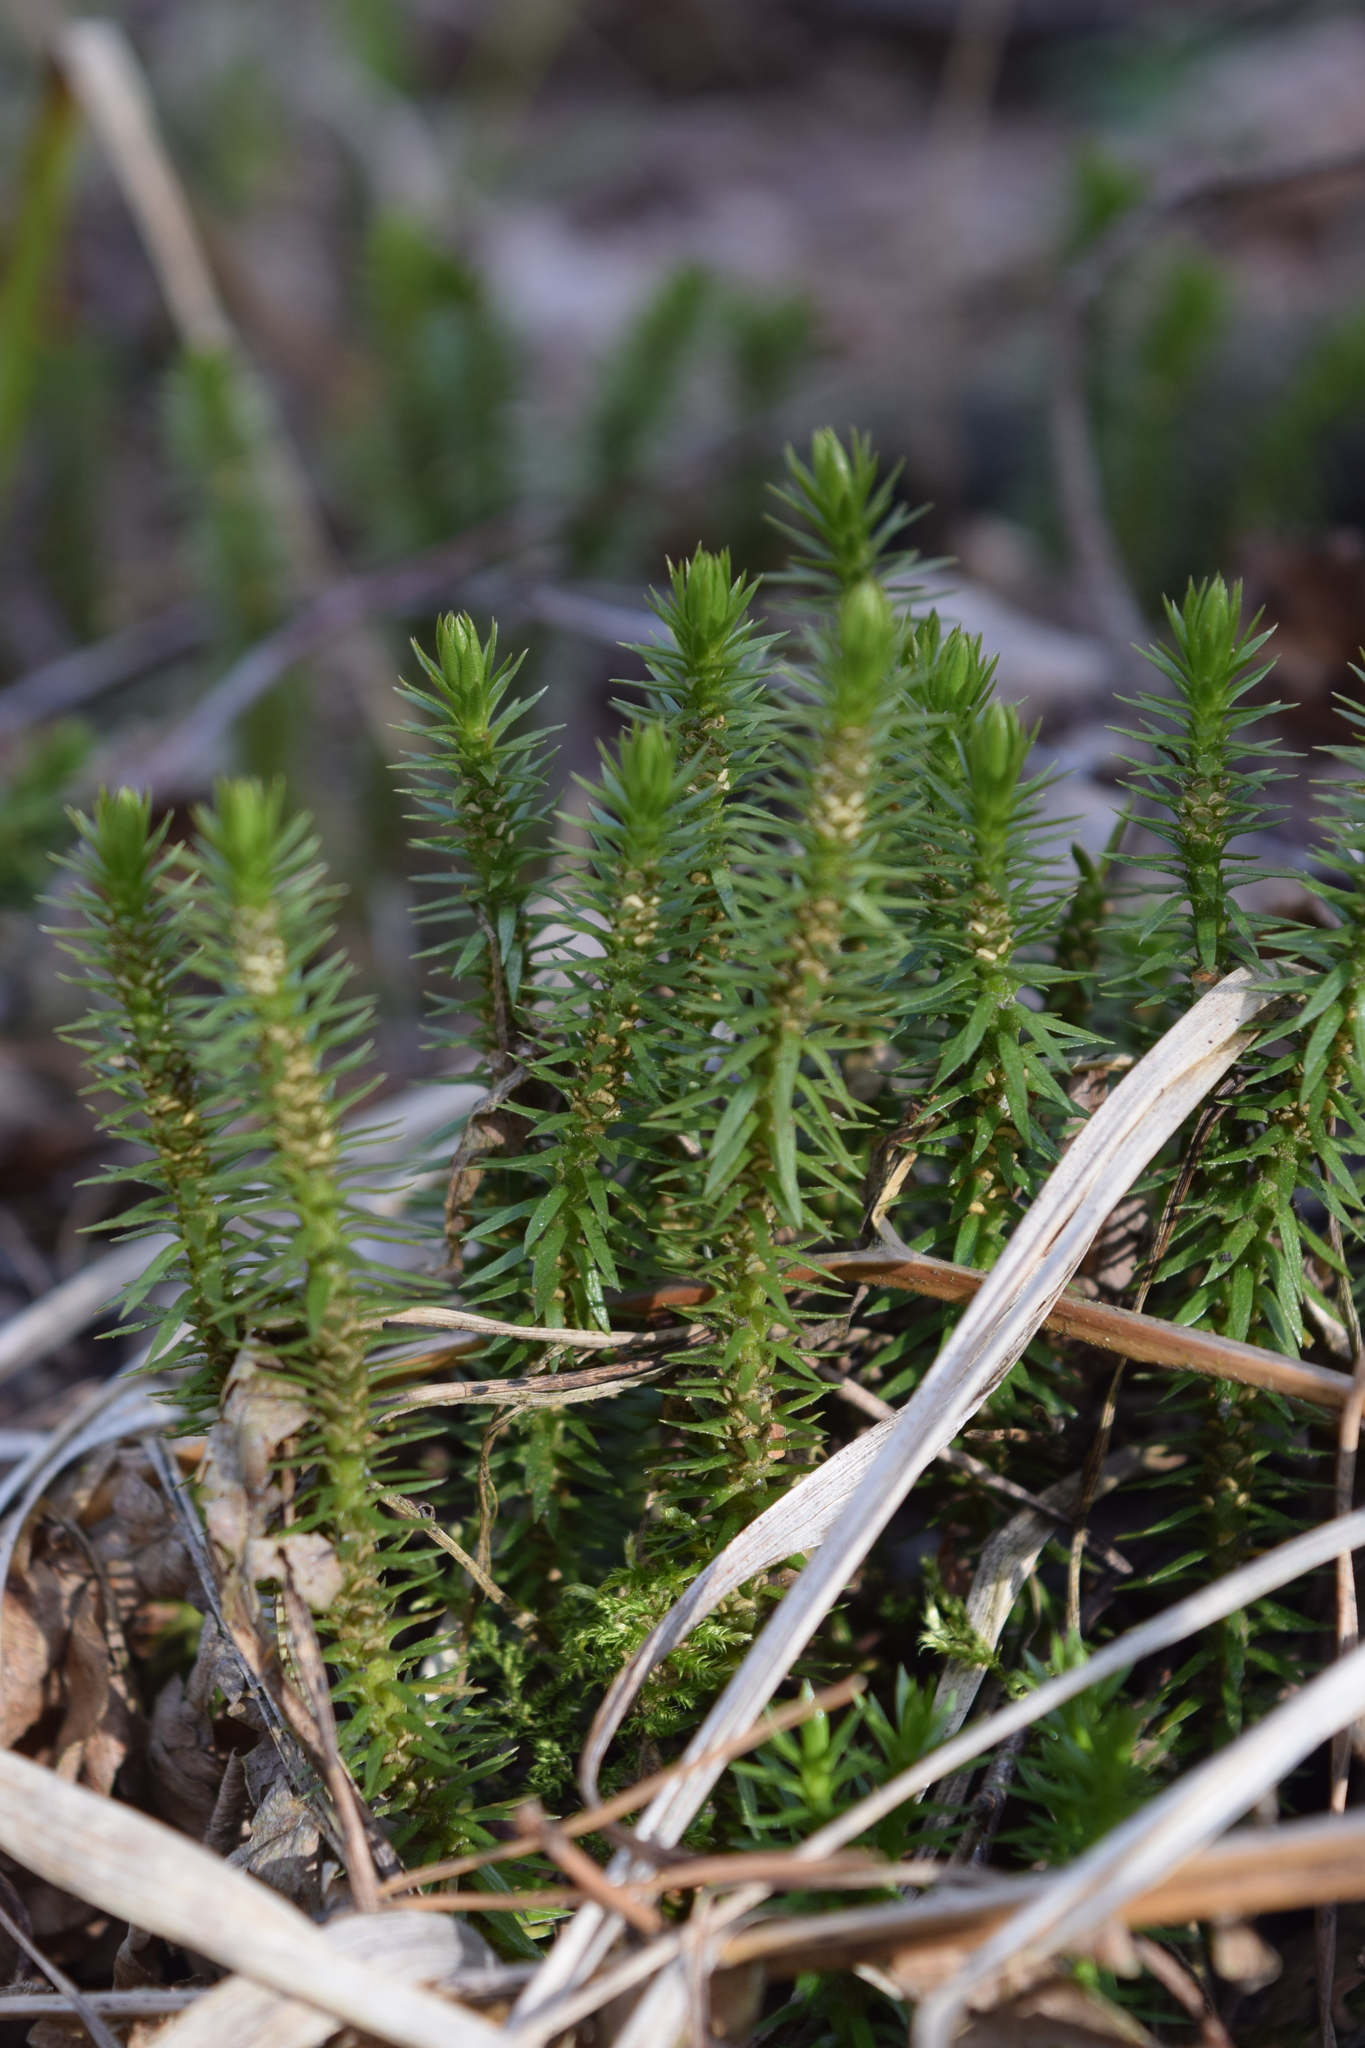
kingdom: Plantae
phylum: Tracheophyta
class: Lycopodiopsida
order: Lycopodiales
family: Lycopodiaceae
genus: Huperzia
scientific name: Huperzia selago
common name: Northern firmoss
